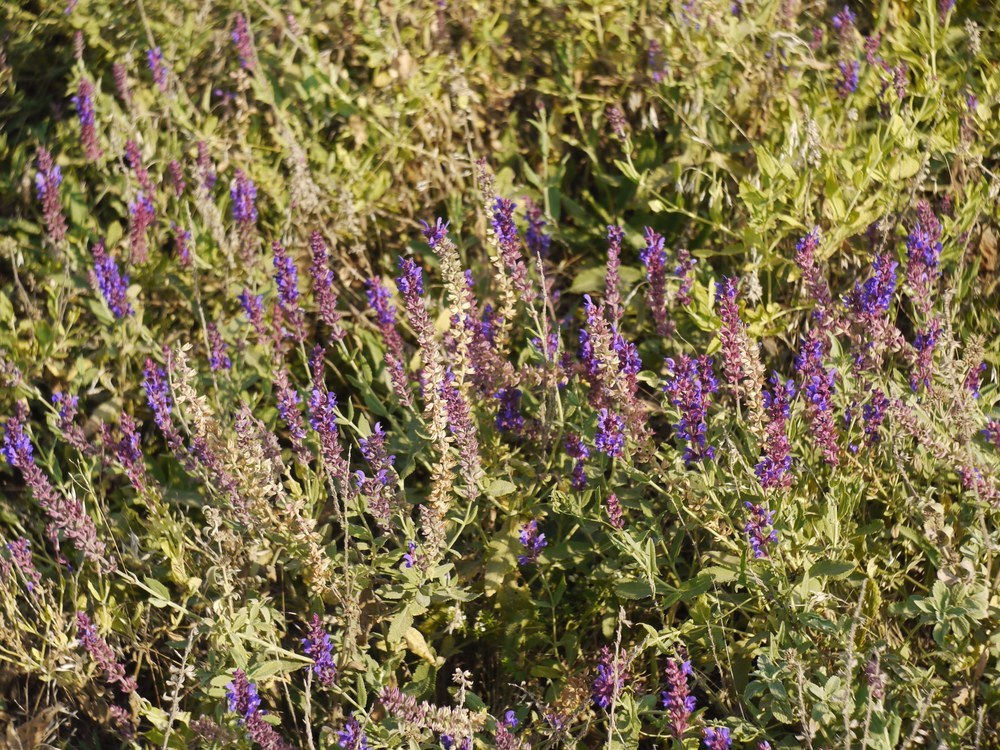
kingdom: Plantae
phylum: Tracheophyta
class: Magnoliopsida
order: Lamiales
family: Lamiaceae
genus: Salvia
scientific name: Salvia nemorosa
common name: Balkan clary
